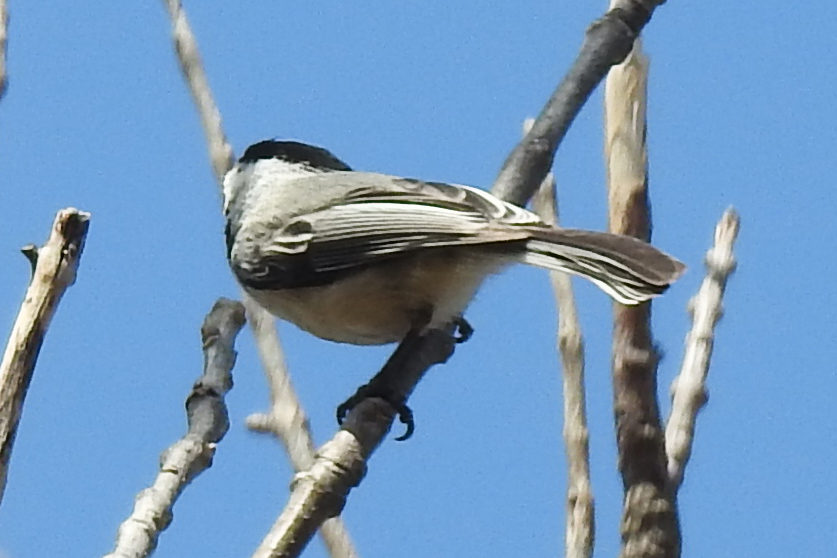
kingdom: Animalia
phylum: Chordata
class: Aves
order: Passeriformes
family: Paridae
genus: Poecile
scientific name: Poecile atricapillus
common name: Black-capped chickadee
